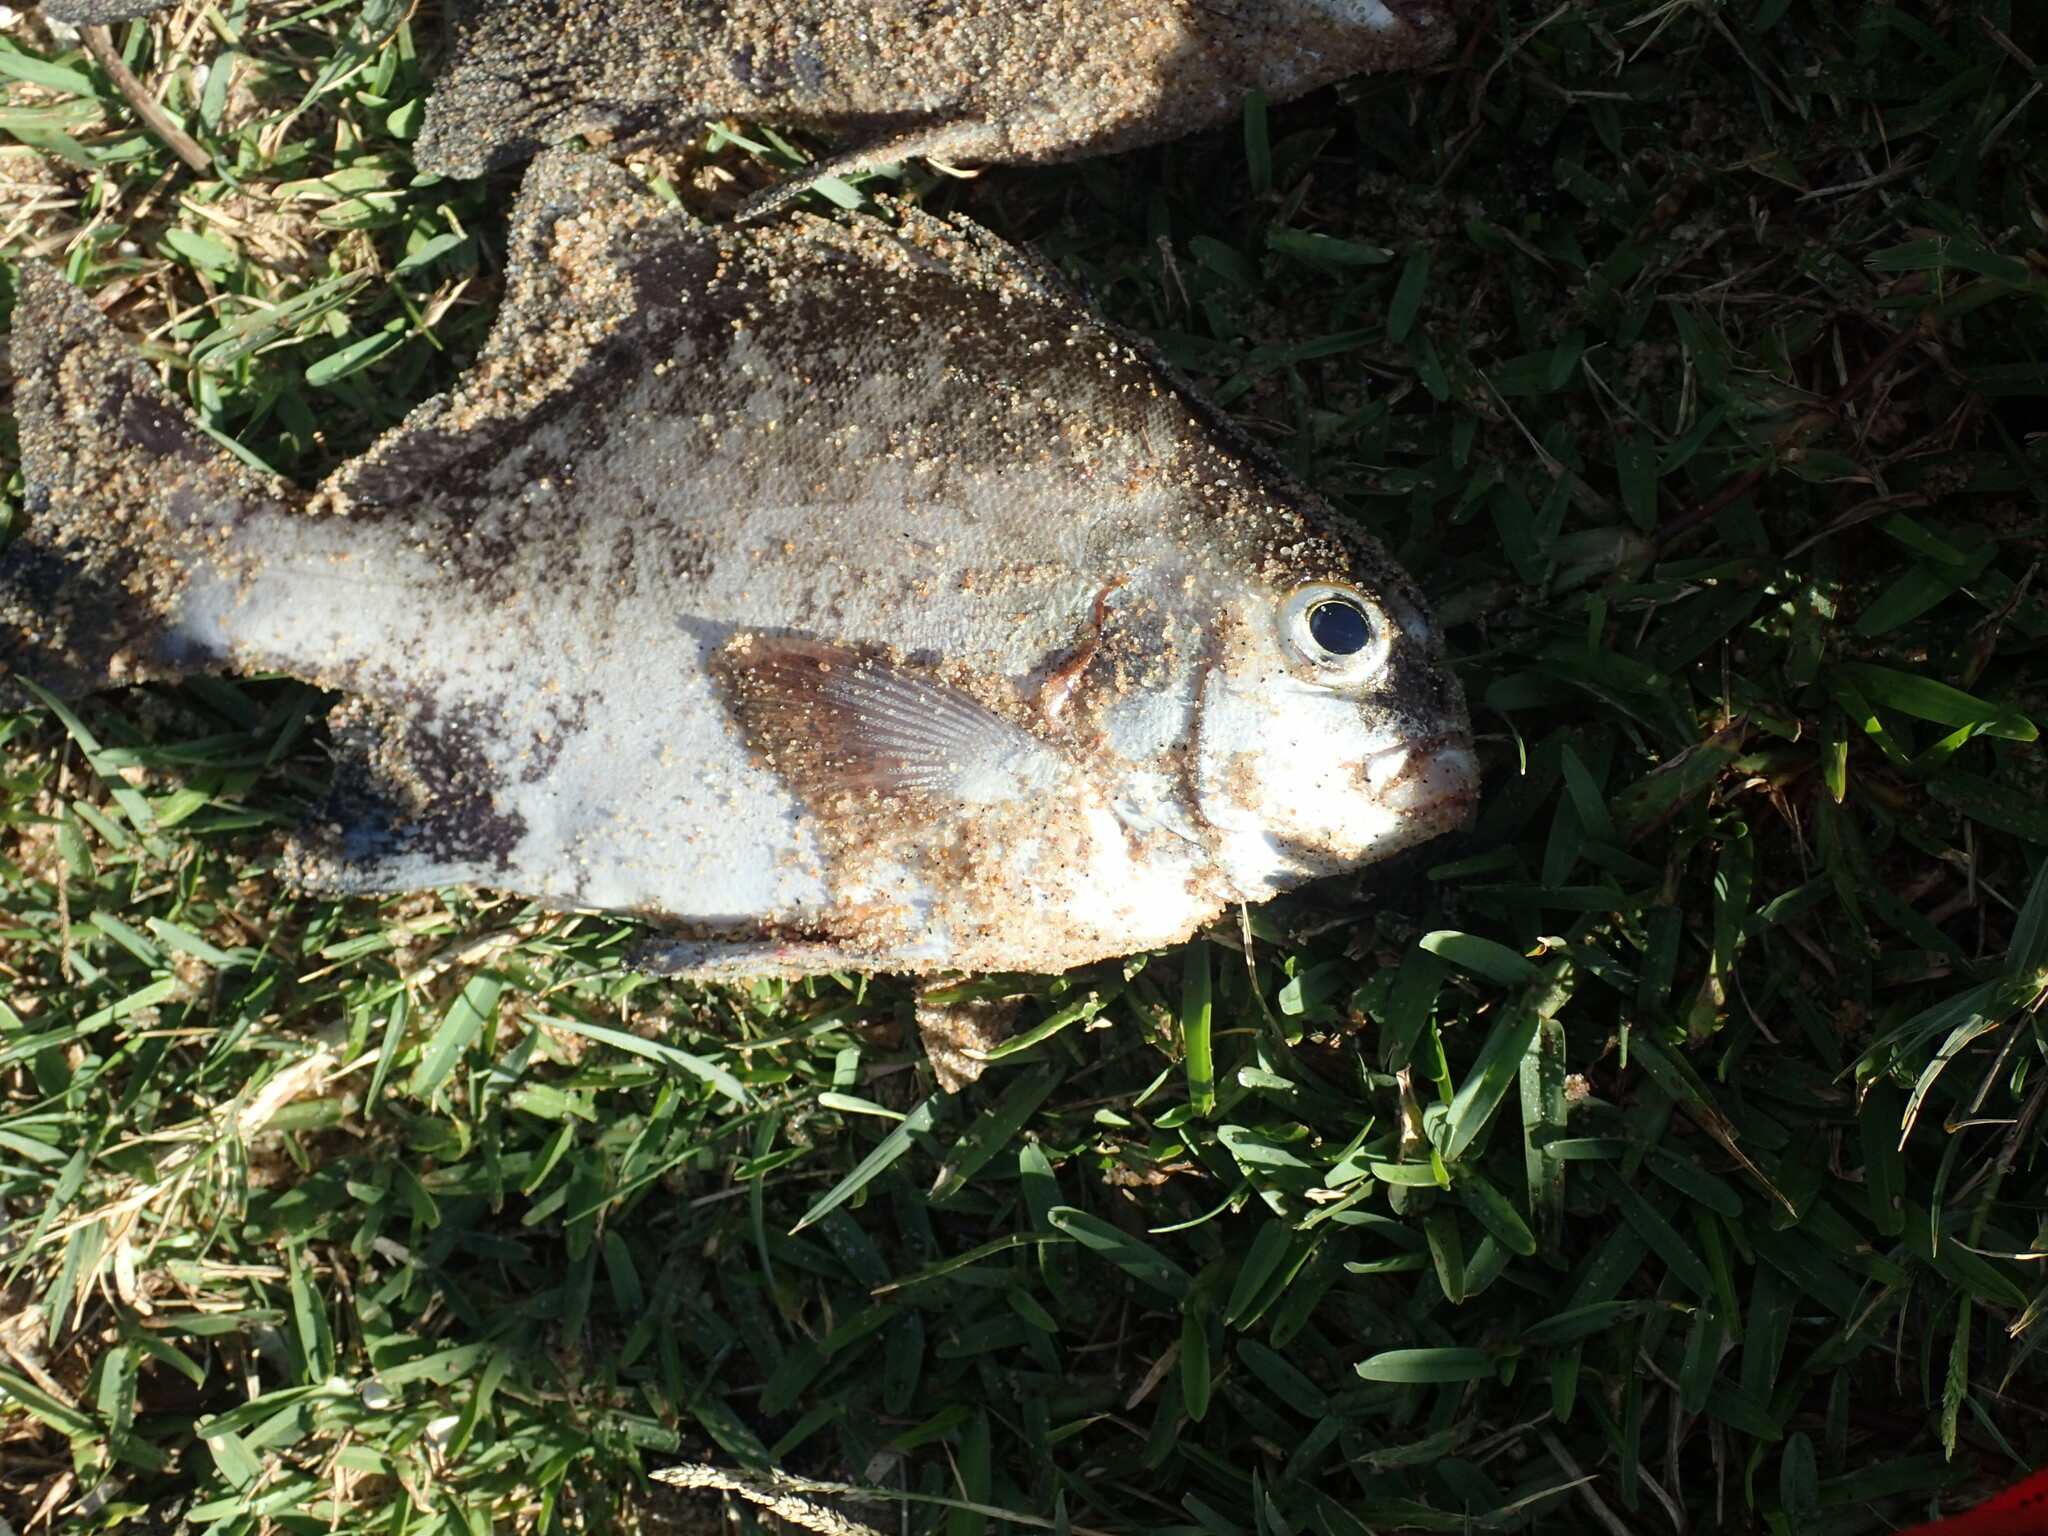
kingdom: Animalia
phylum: Chordata
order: Perciformes
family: Dichistiidae
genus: Dichistius
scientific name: Dichistius multifasciatus
